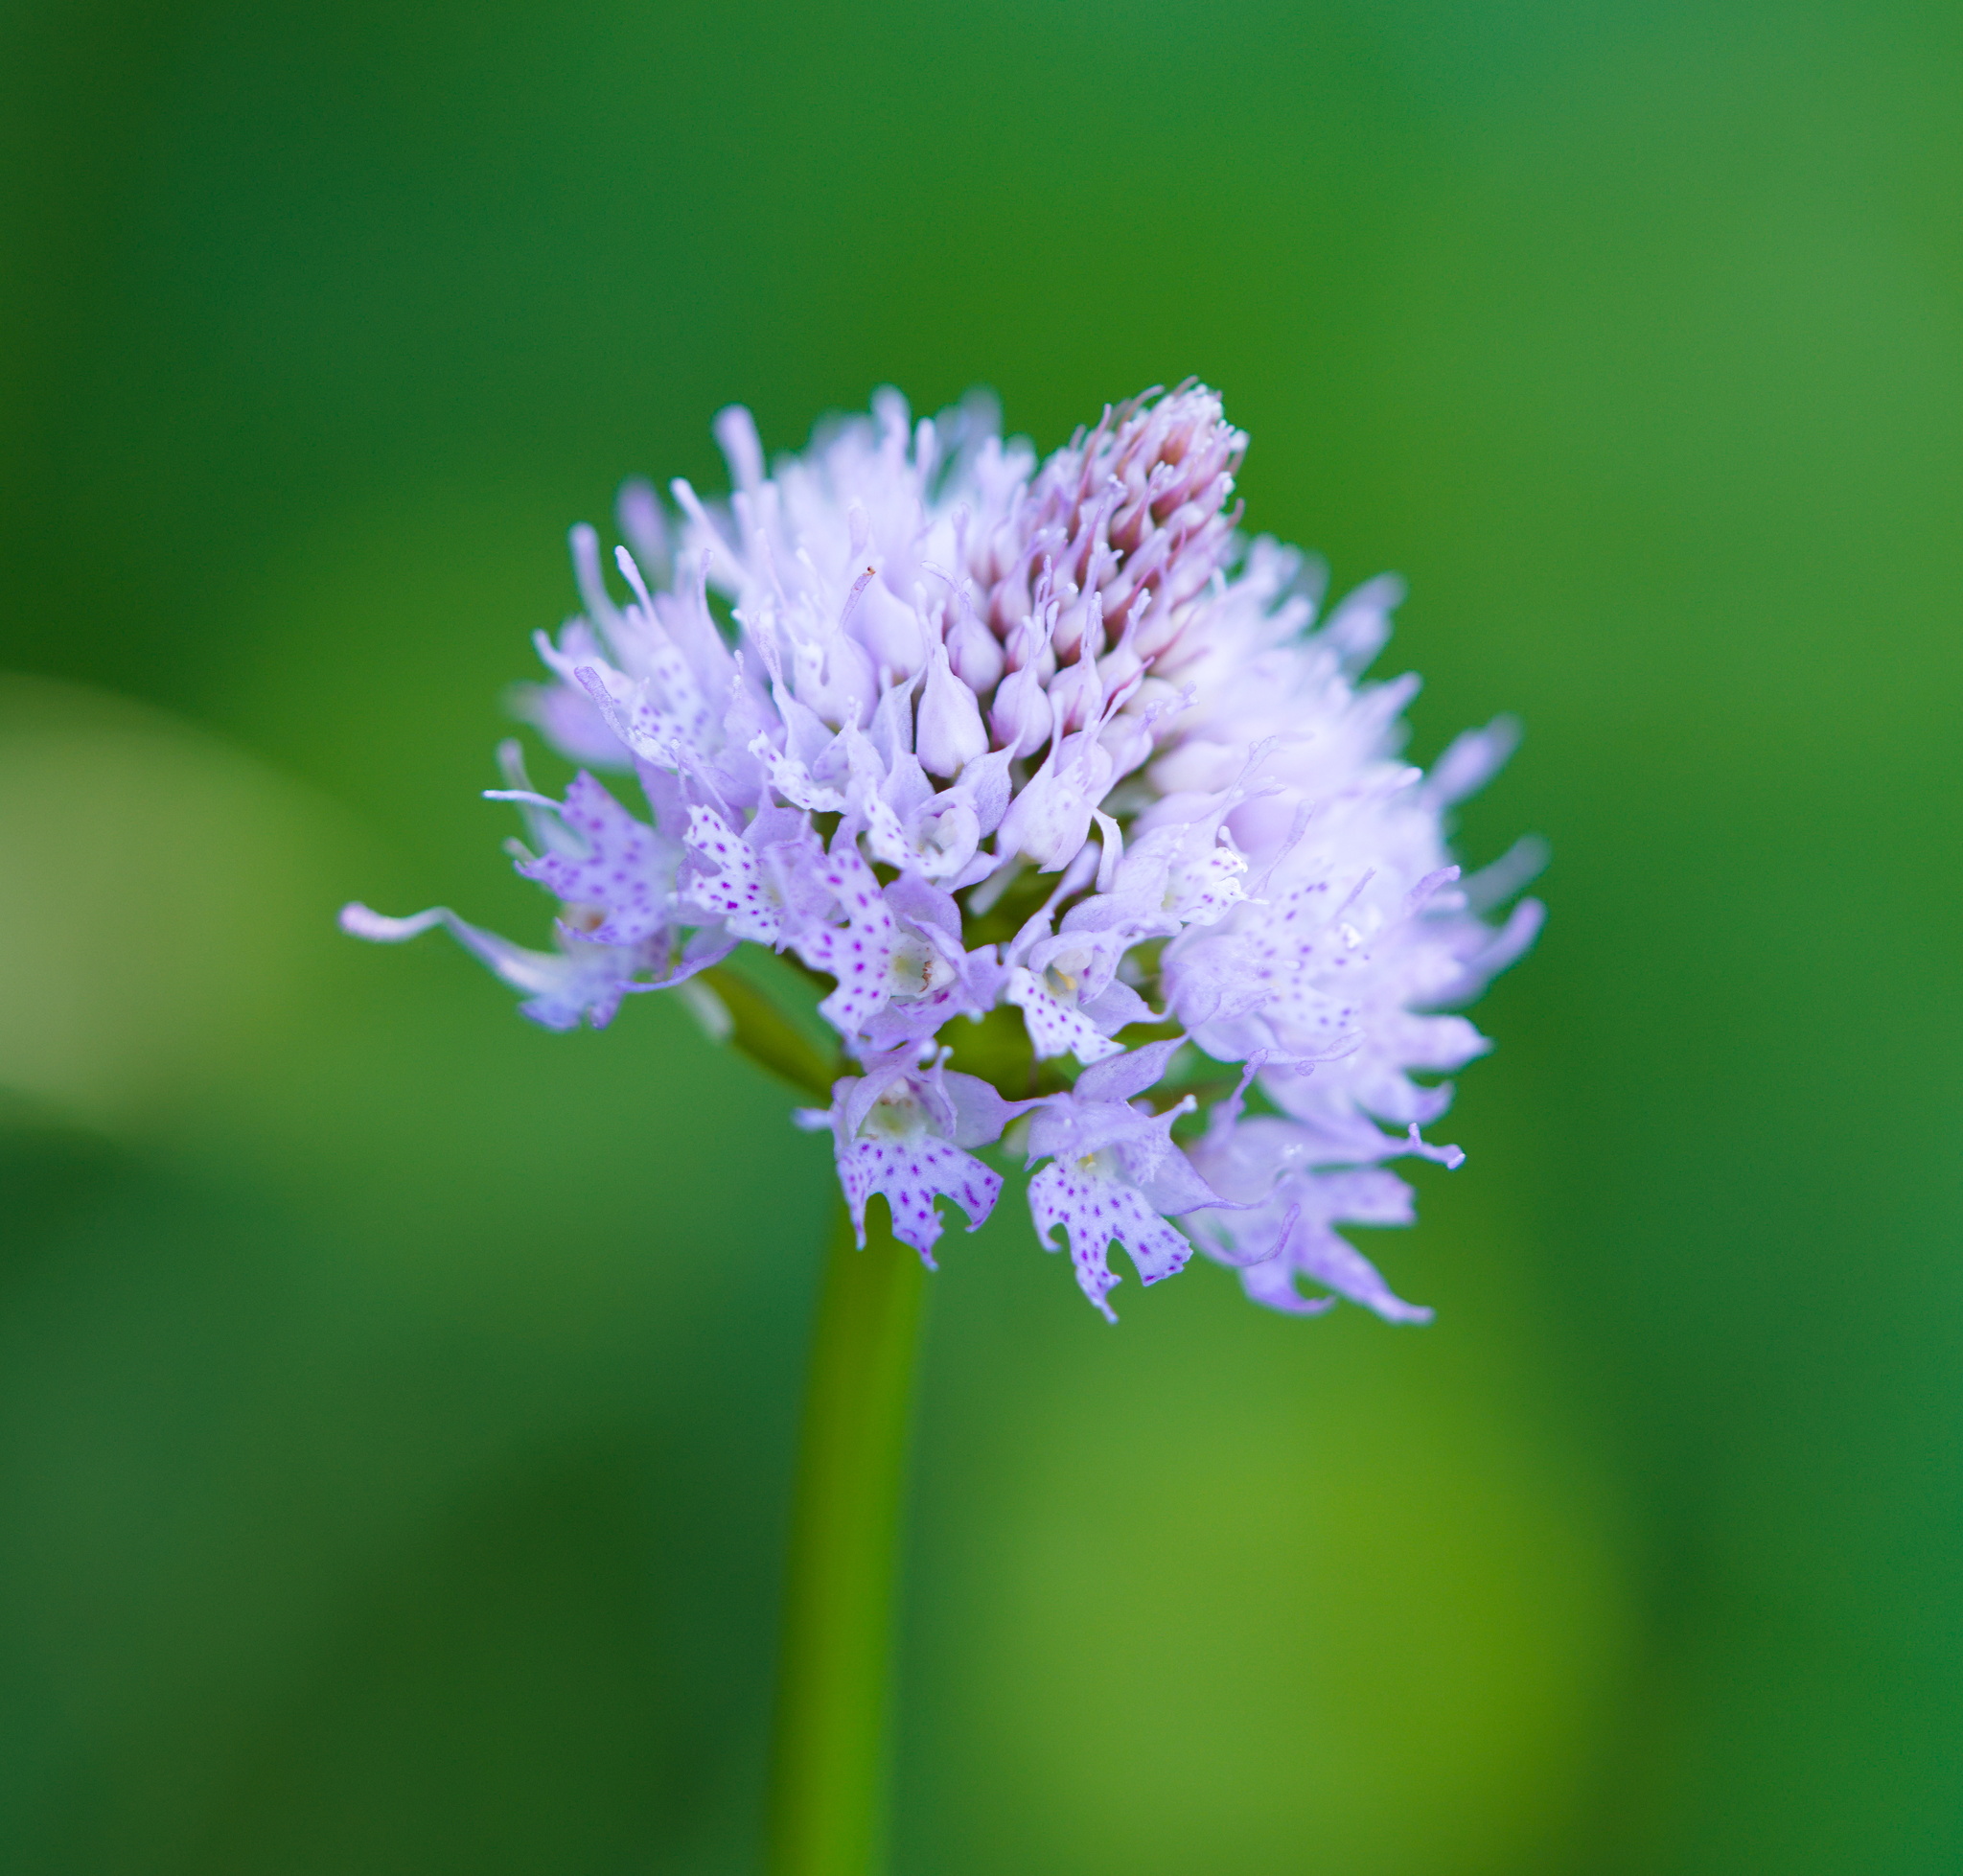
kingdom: Plantae
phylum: Tracheophyta
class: Liliopsida
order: Asparagales
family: Orchidaceae
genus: Traunsteinera
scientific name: Traunsteinera globosa
